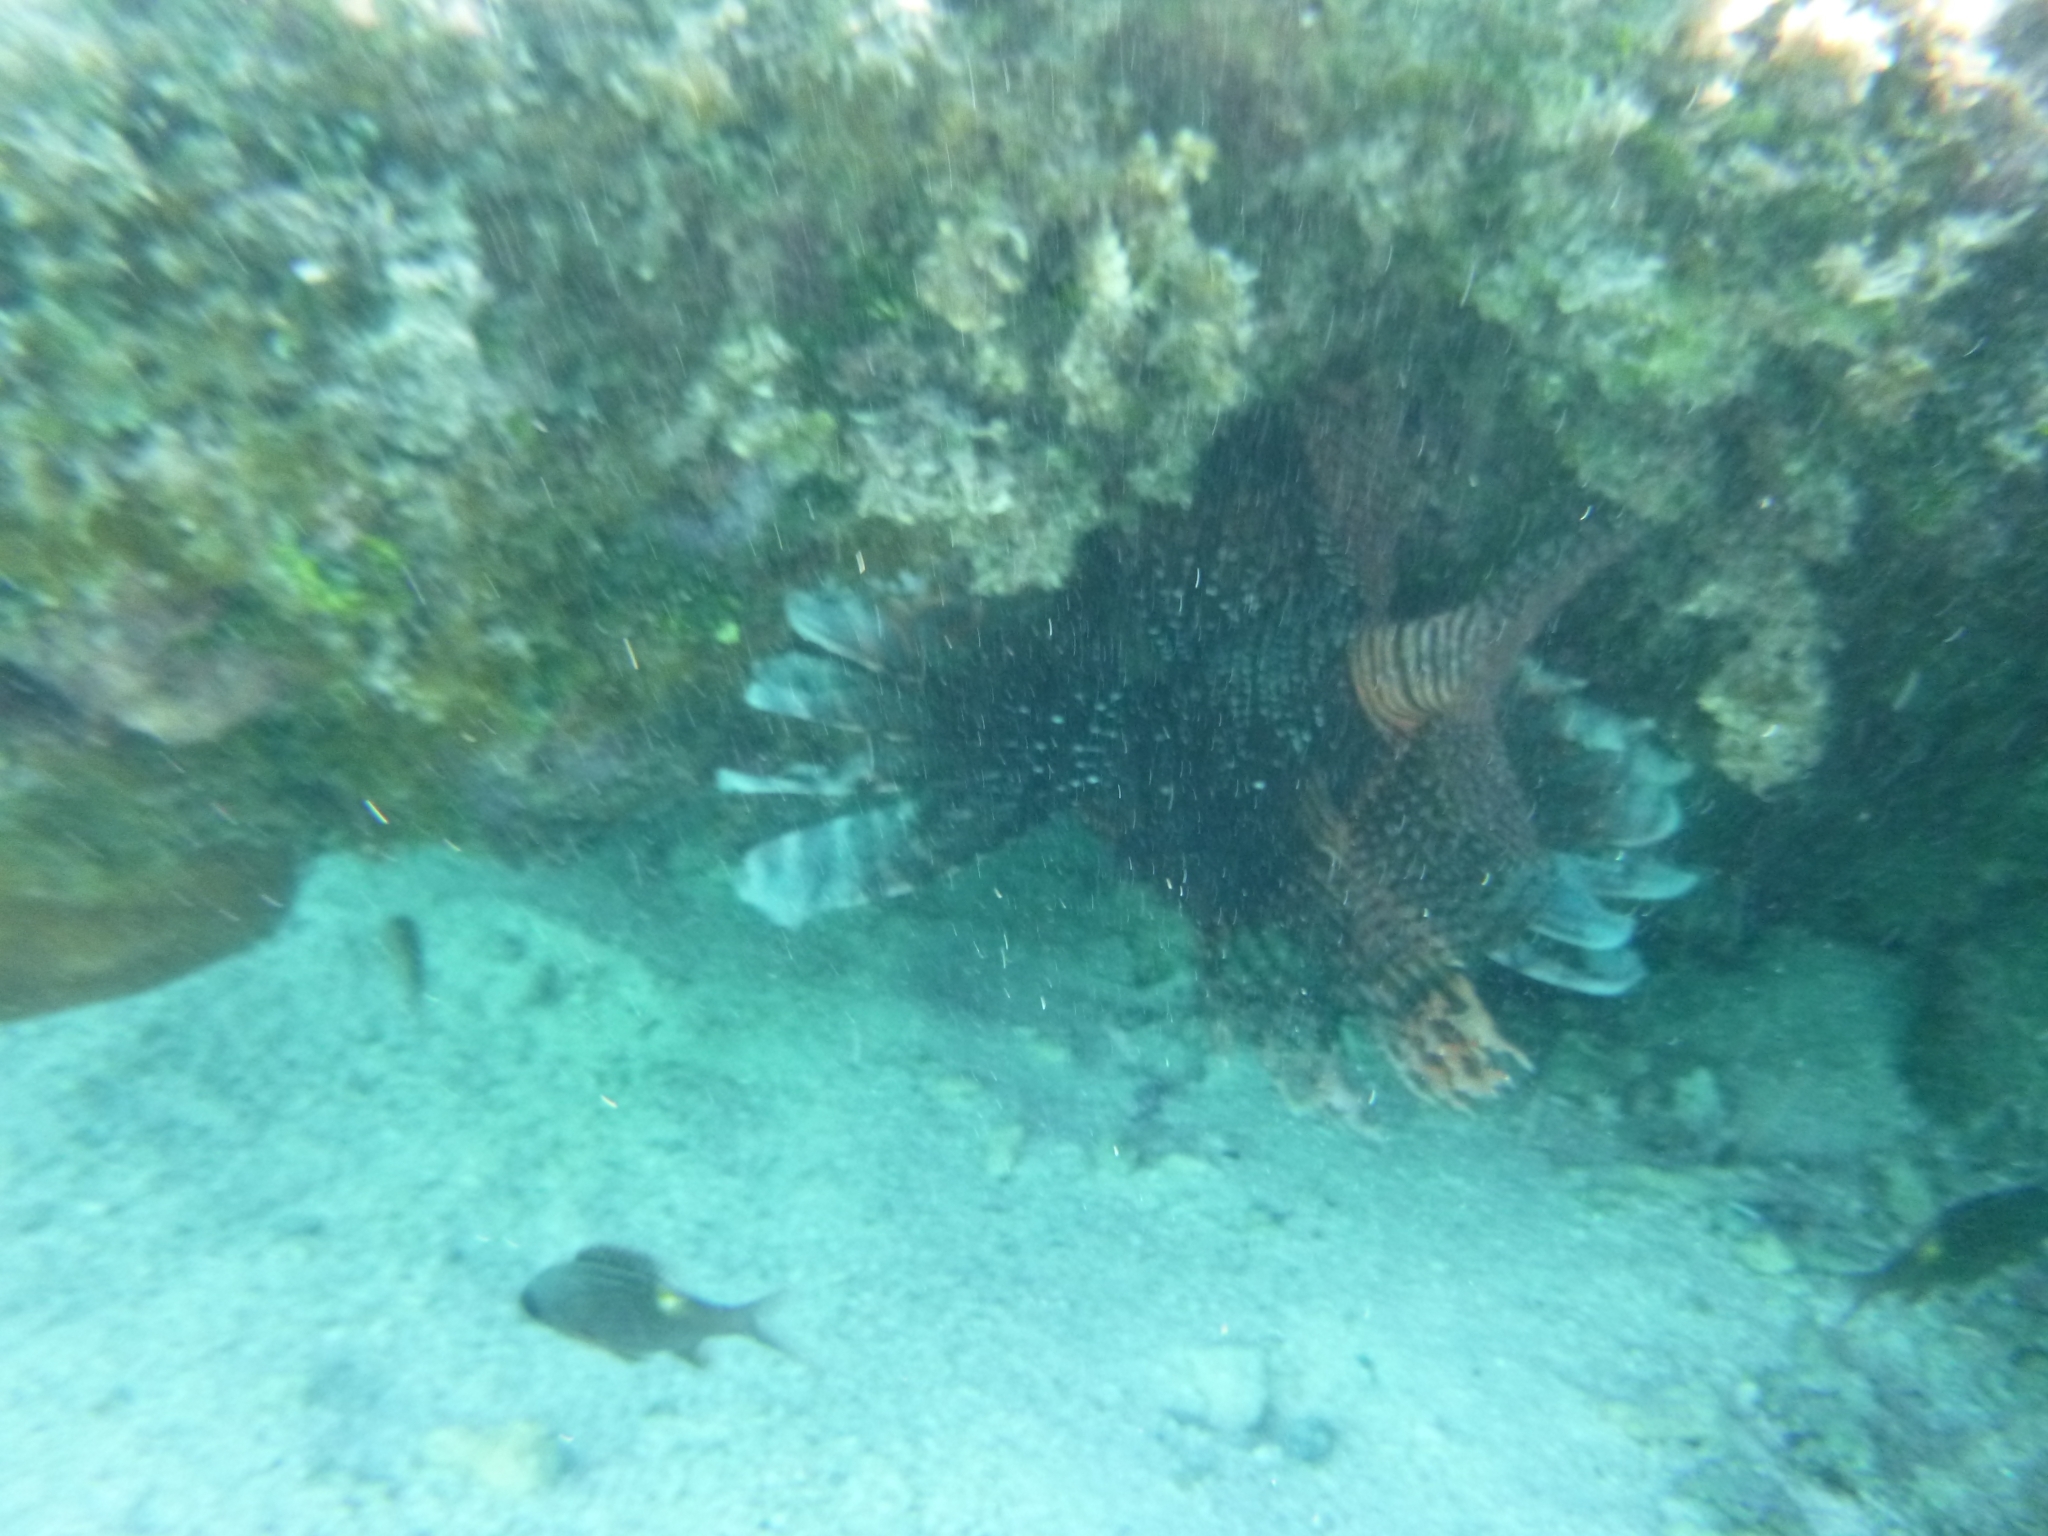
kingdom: Animalia
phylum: Chordata
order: Scorpaeniformes
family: Scorpaenidae
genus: Pterois
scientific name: Pterois volitans
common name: Lionfish
